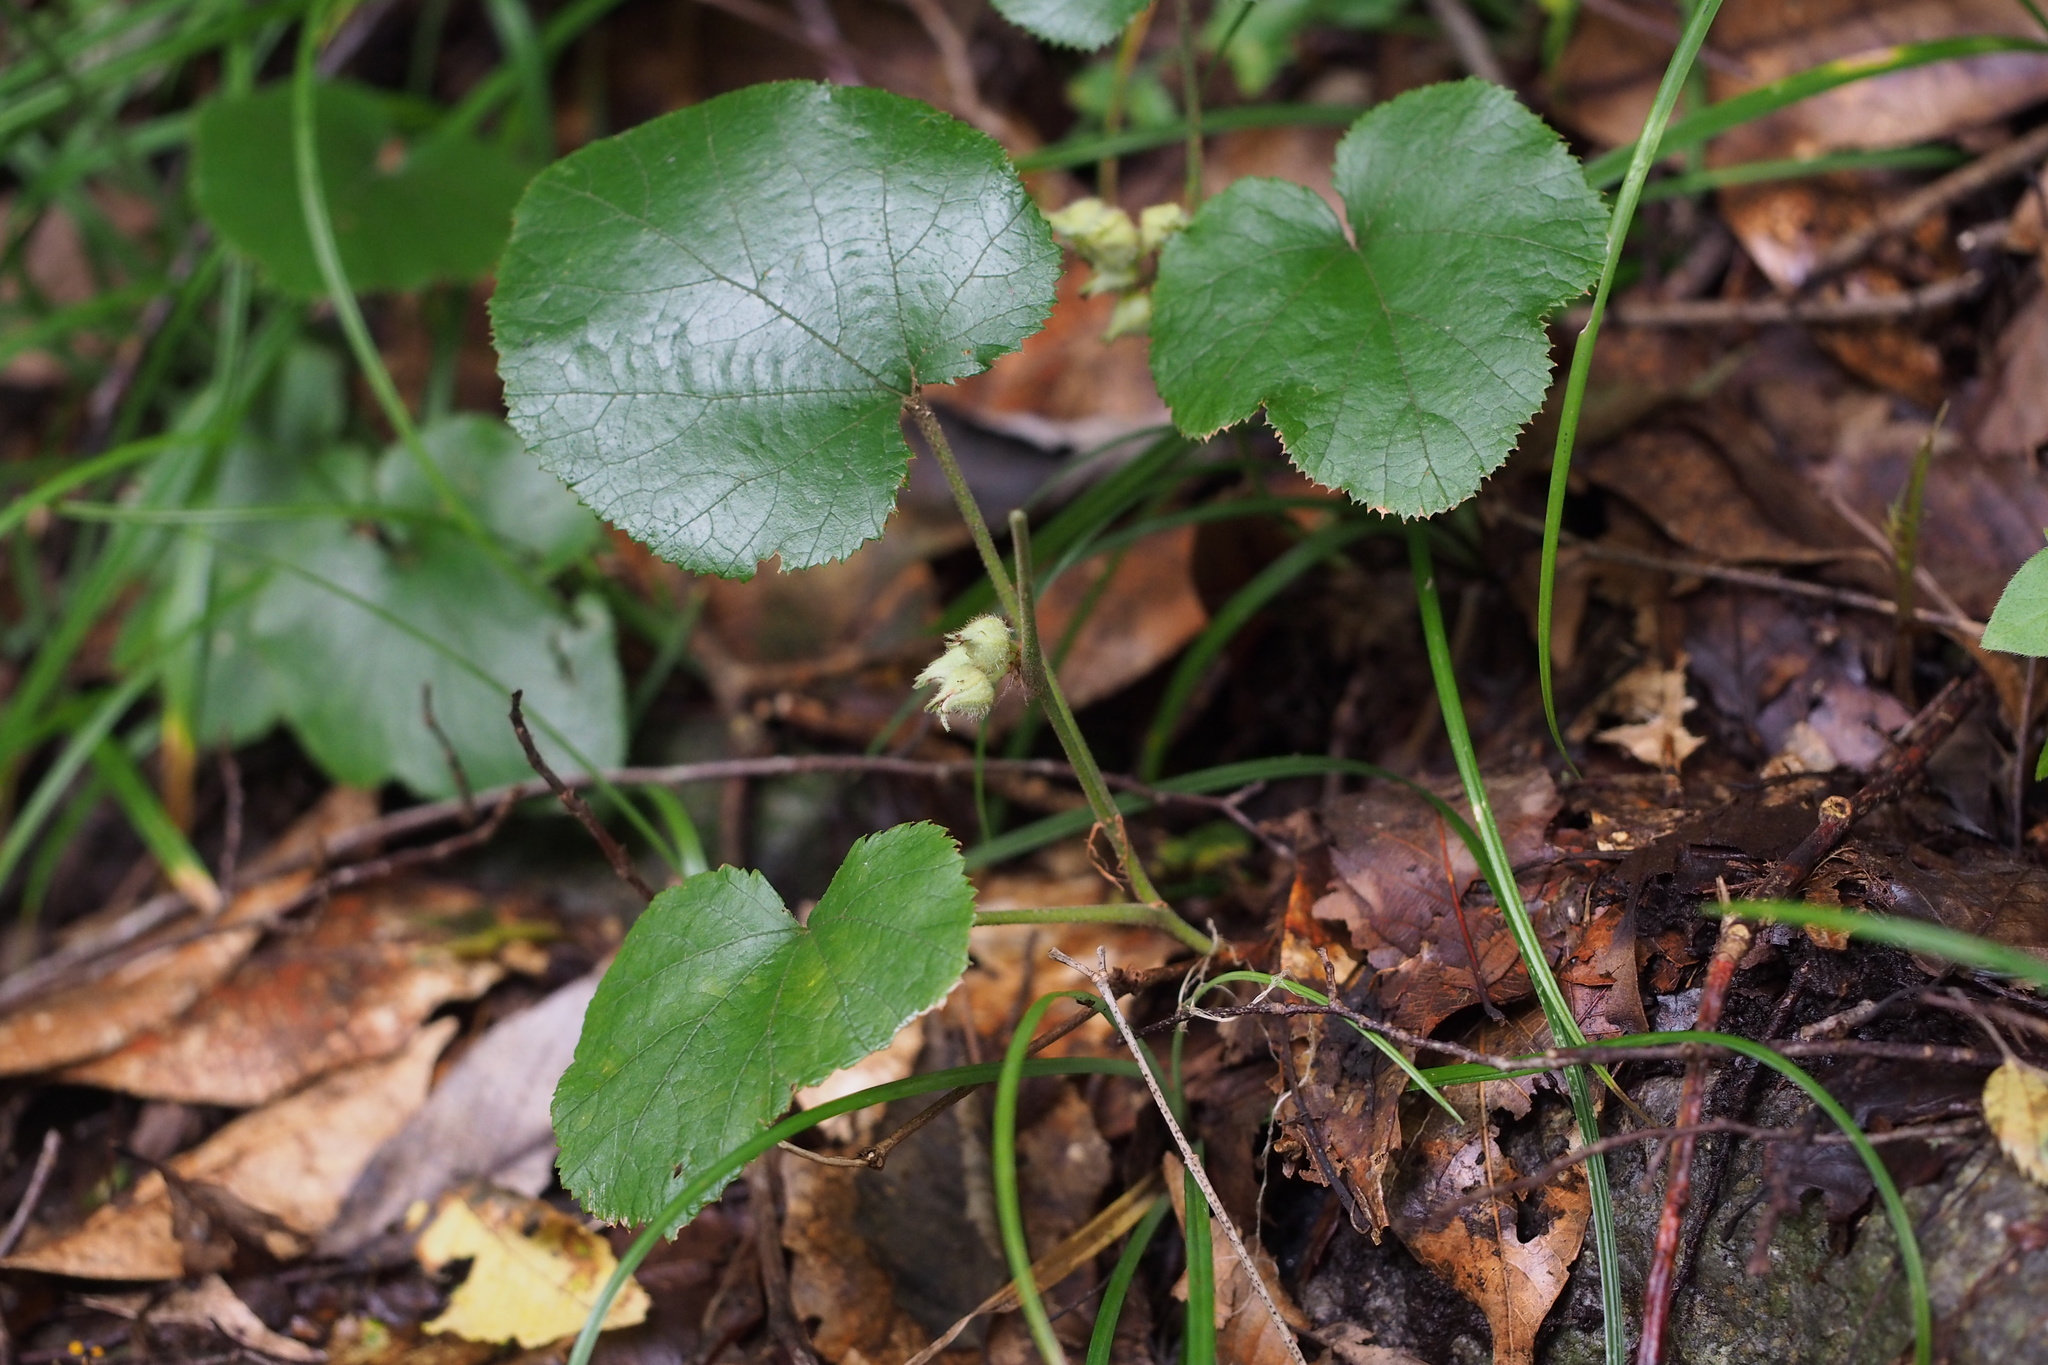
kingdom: Plantae
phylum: Tracheophyta
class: Magnoliopsida
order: Rosales
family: Rosaceae
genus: Rubus
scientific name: Rubus buergeri
